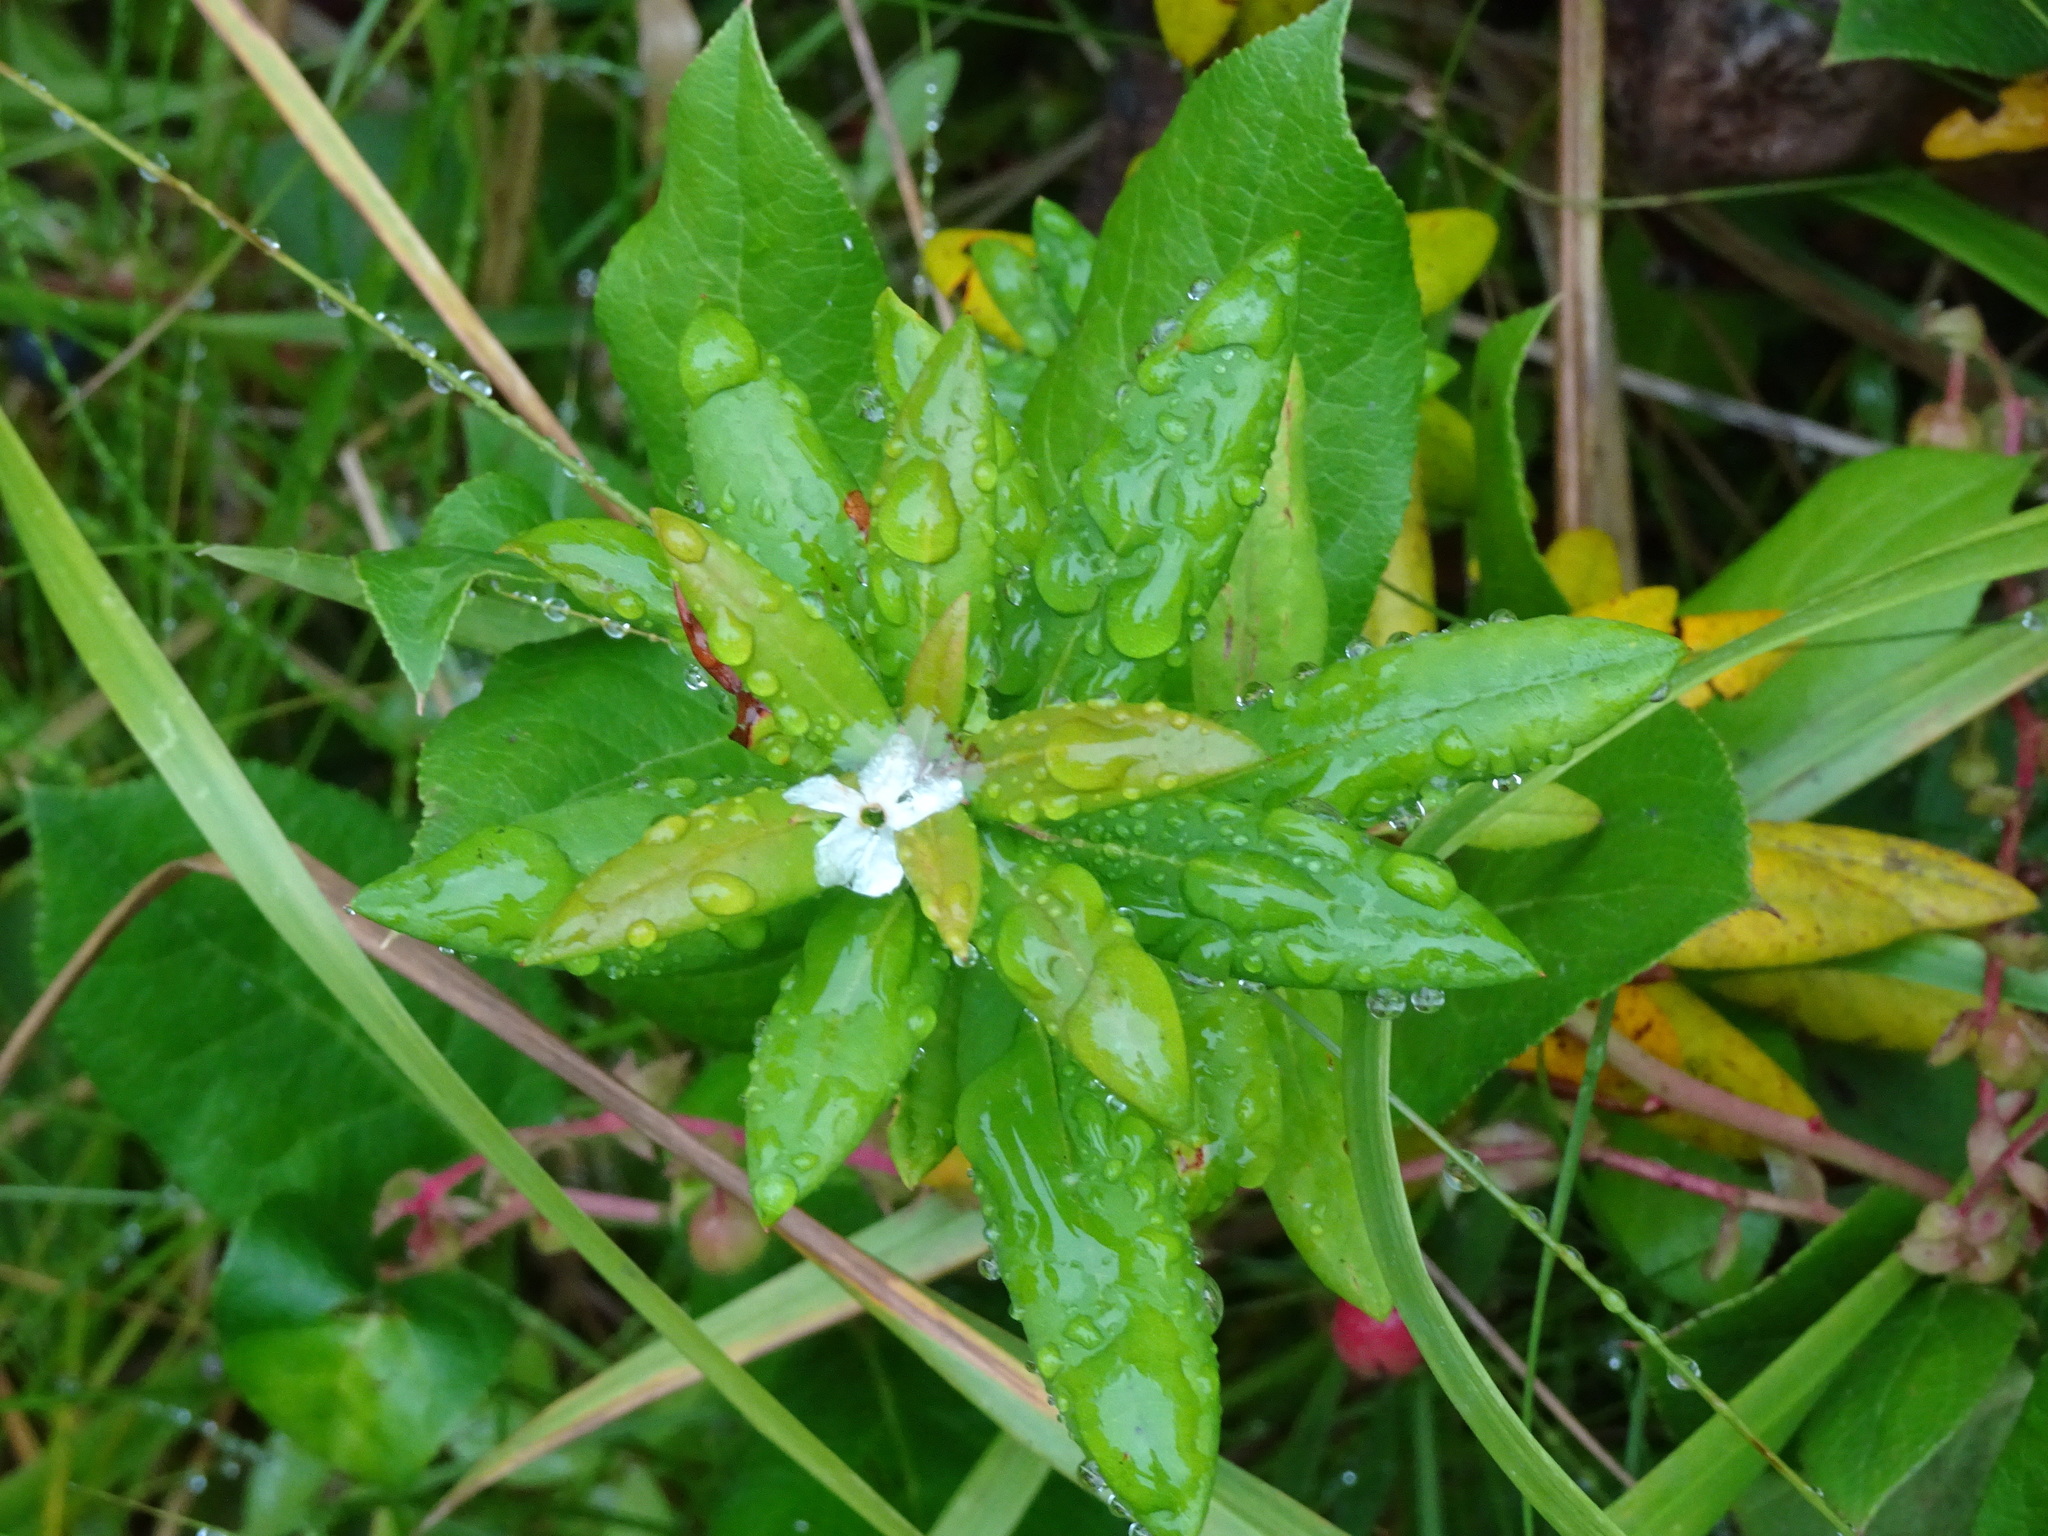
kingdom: Plantae
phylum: Tracheophyta
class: Magnoliopsida
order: Ericales
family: Ericaceae
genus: Rhododendron
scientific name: Rhododendron columbianum
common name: Western labrador tea
